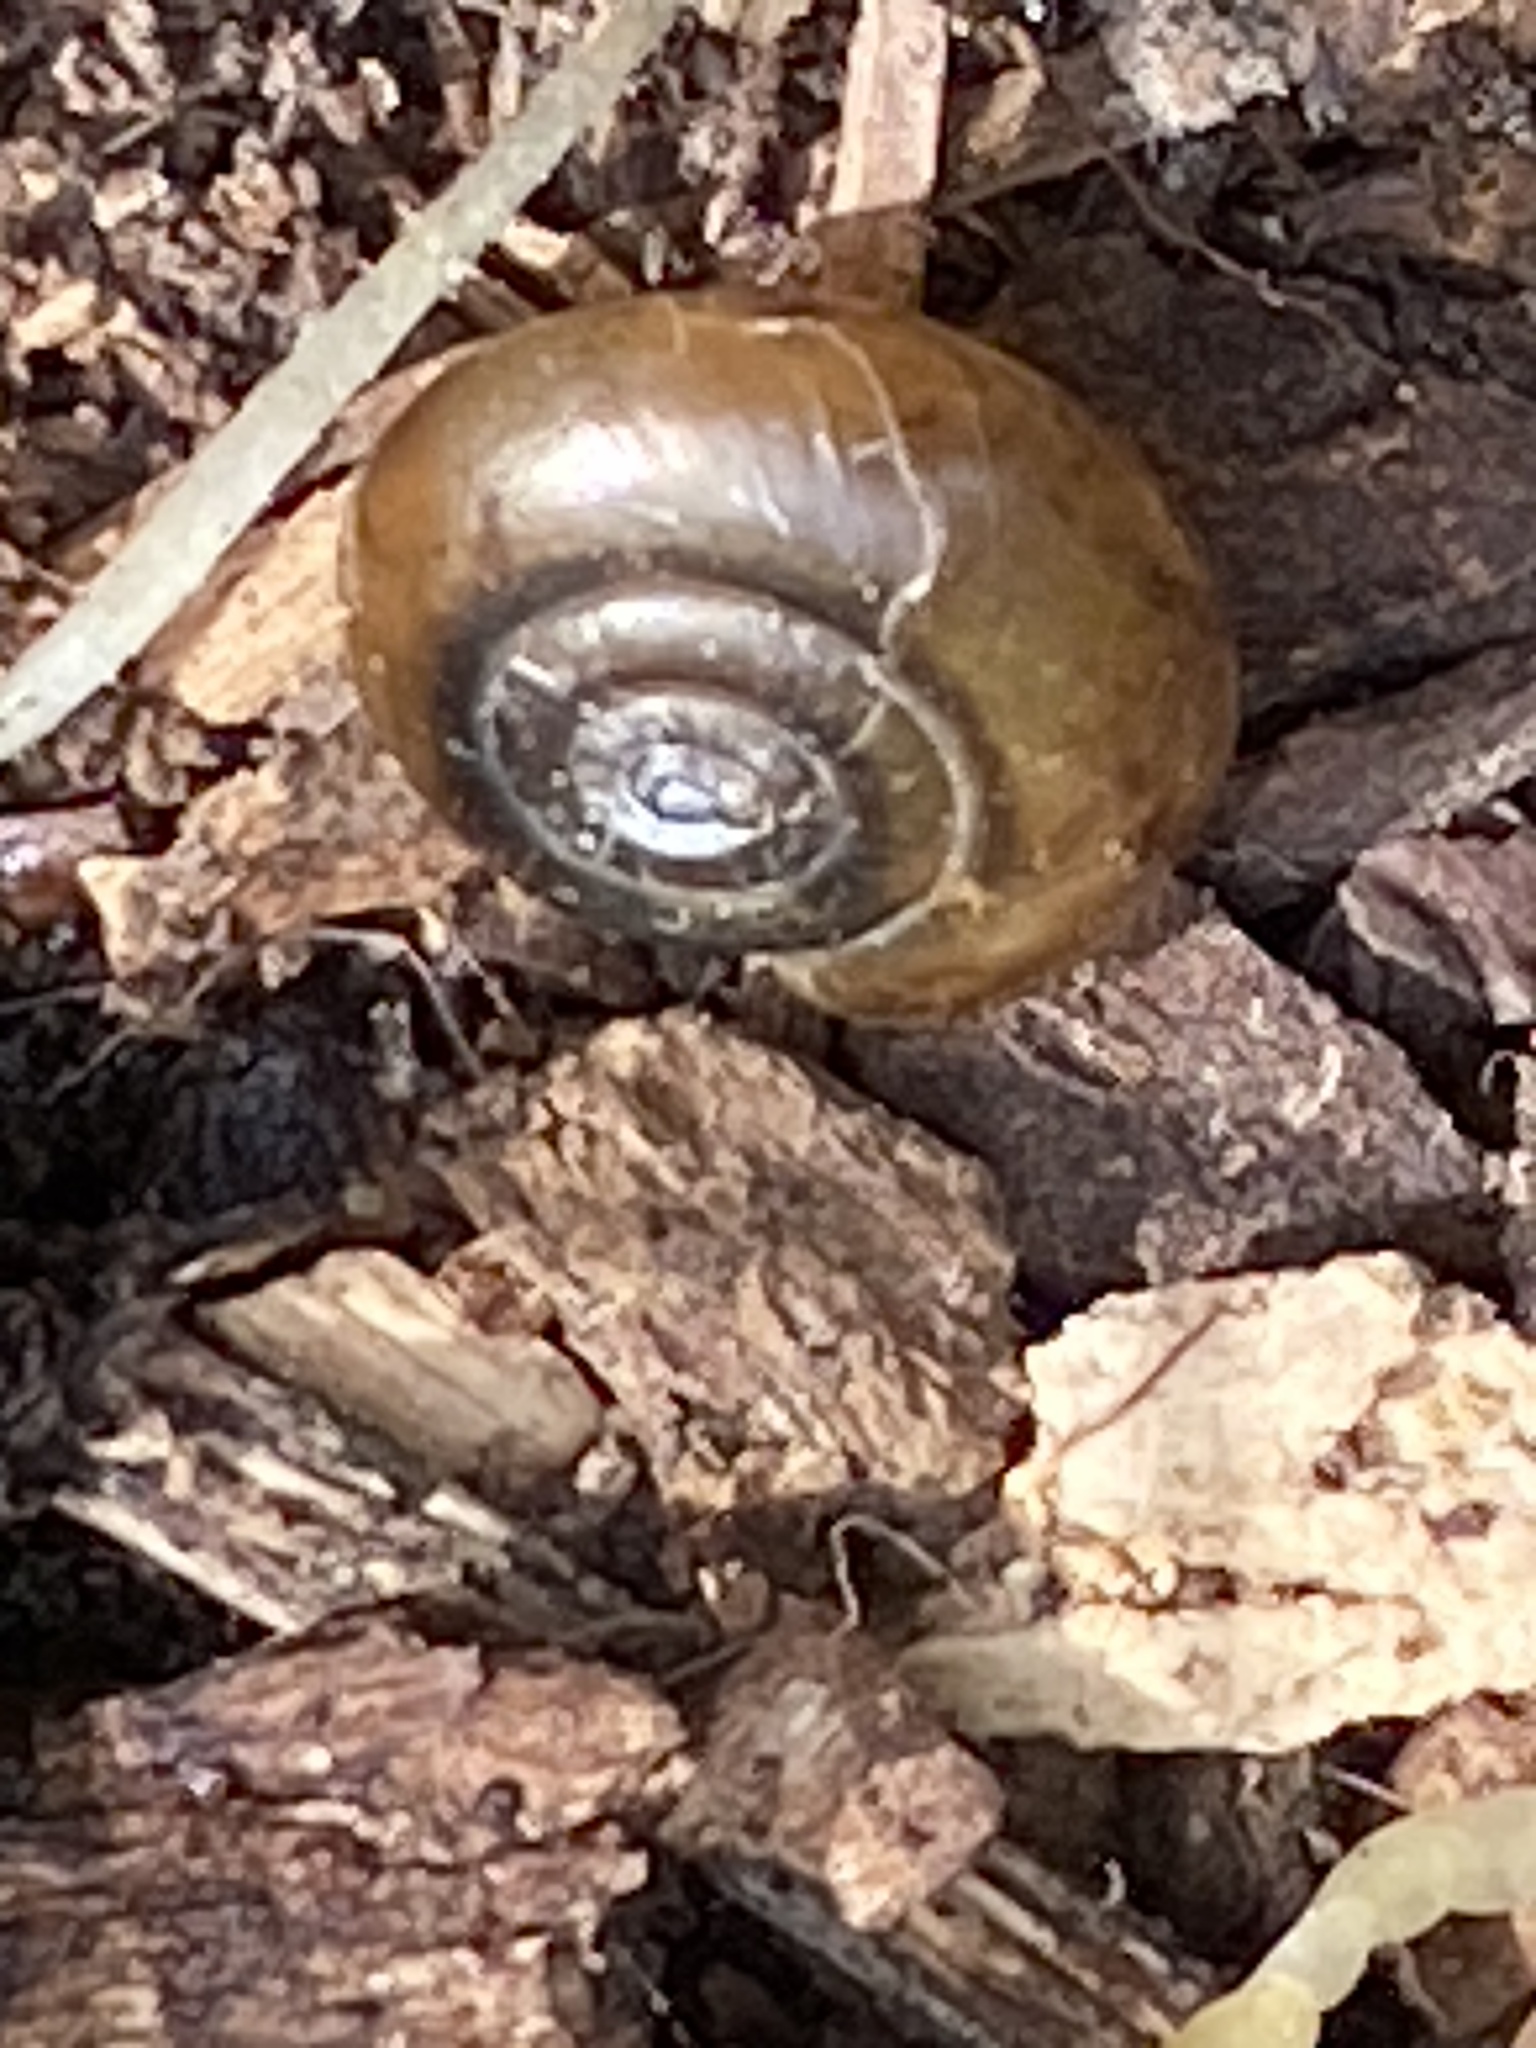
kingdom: Animalia
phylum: Mollusca
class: Gastropoda
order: Stylommatophora
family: Oxychilidae
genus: Oxychilus
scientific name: Oxychilus draparnaudi
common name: Draparnaud's glass snail
